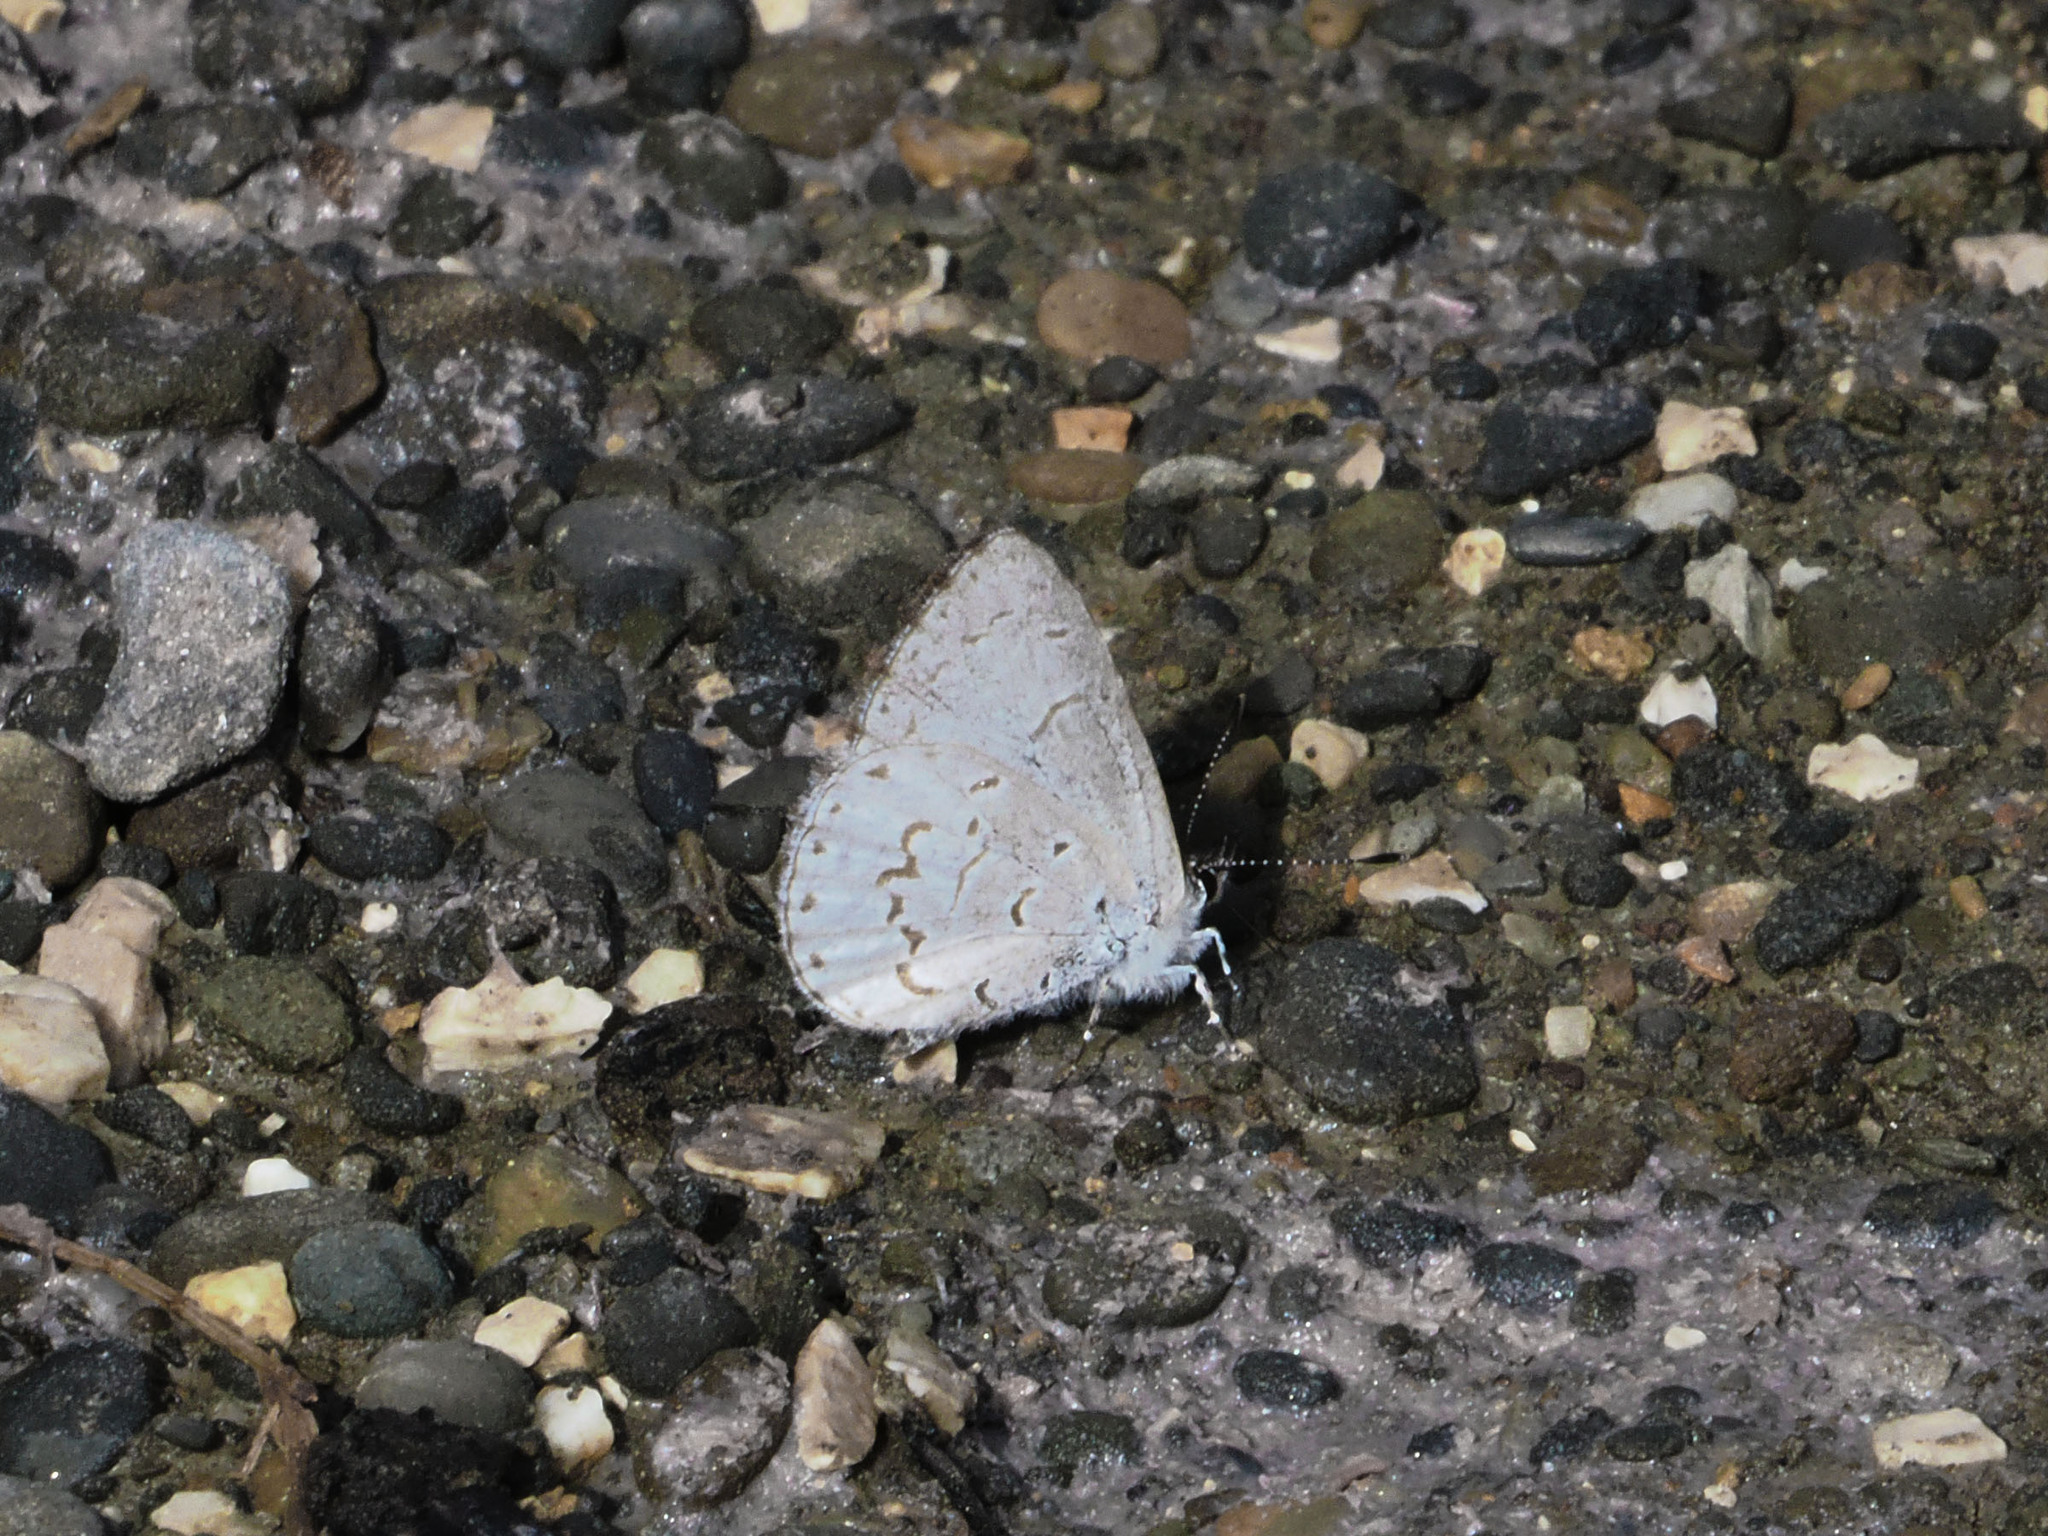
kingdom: Animalia
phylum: Arthropoda
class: Insecta
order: Lepidoptera
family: Lycaenidae
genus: Udara
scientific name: Udara drucei
